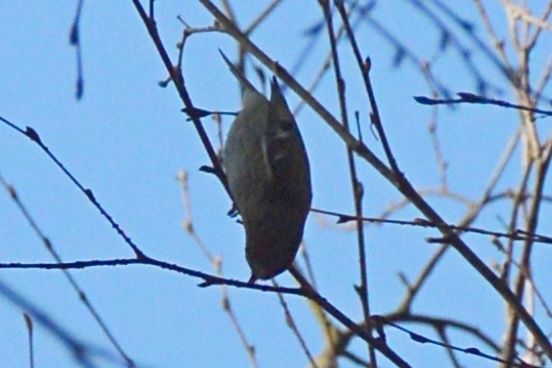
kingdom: Animalia
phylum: Chordata
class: Aves
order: Passeriformes
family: Regulidae
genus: Regulus
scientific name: Regulus regulus
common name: Goldcrest
